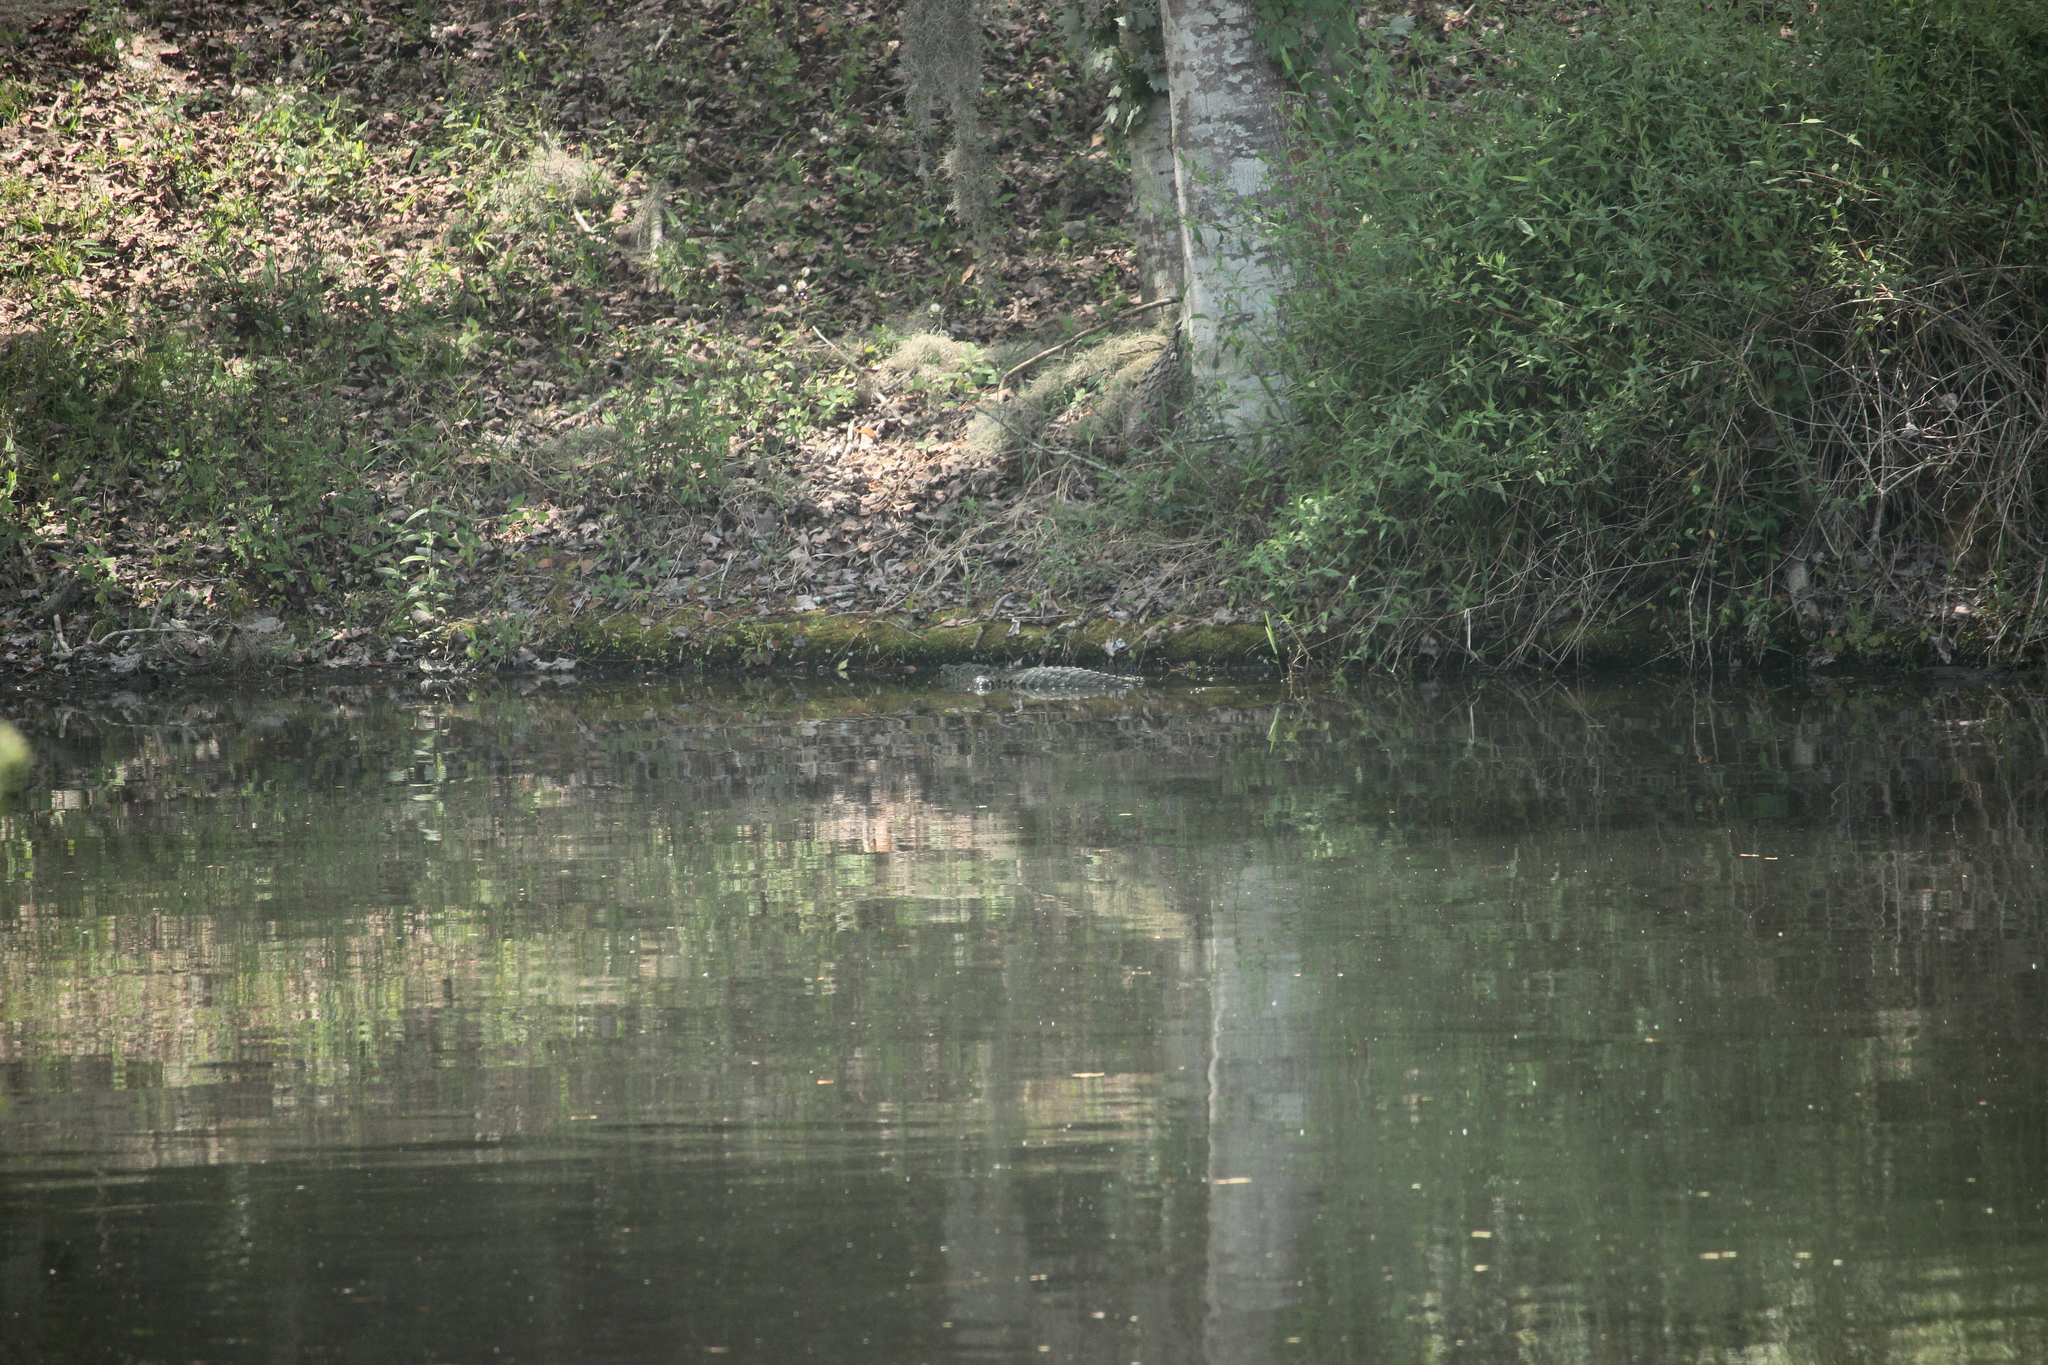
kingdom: Animalia
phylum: Chordata
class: Crocodylia
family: Alligatoridae
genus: Alligator
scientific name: Alligator mississippiensis
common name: American alligator
